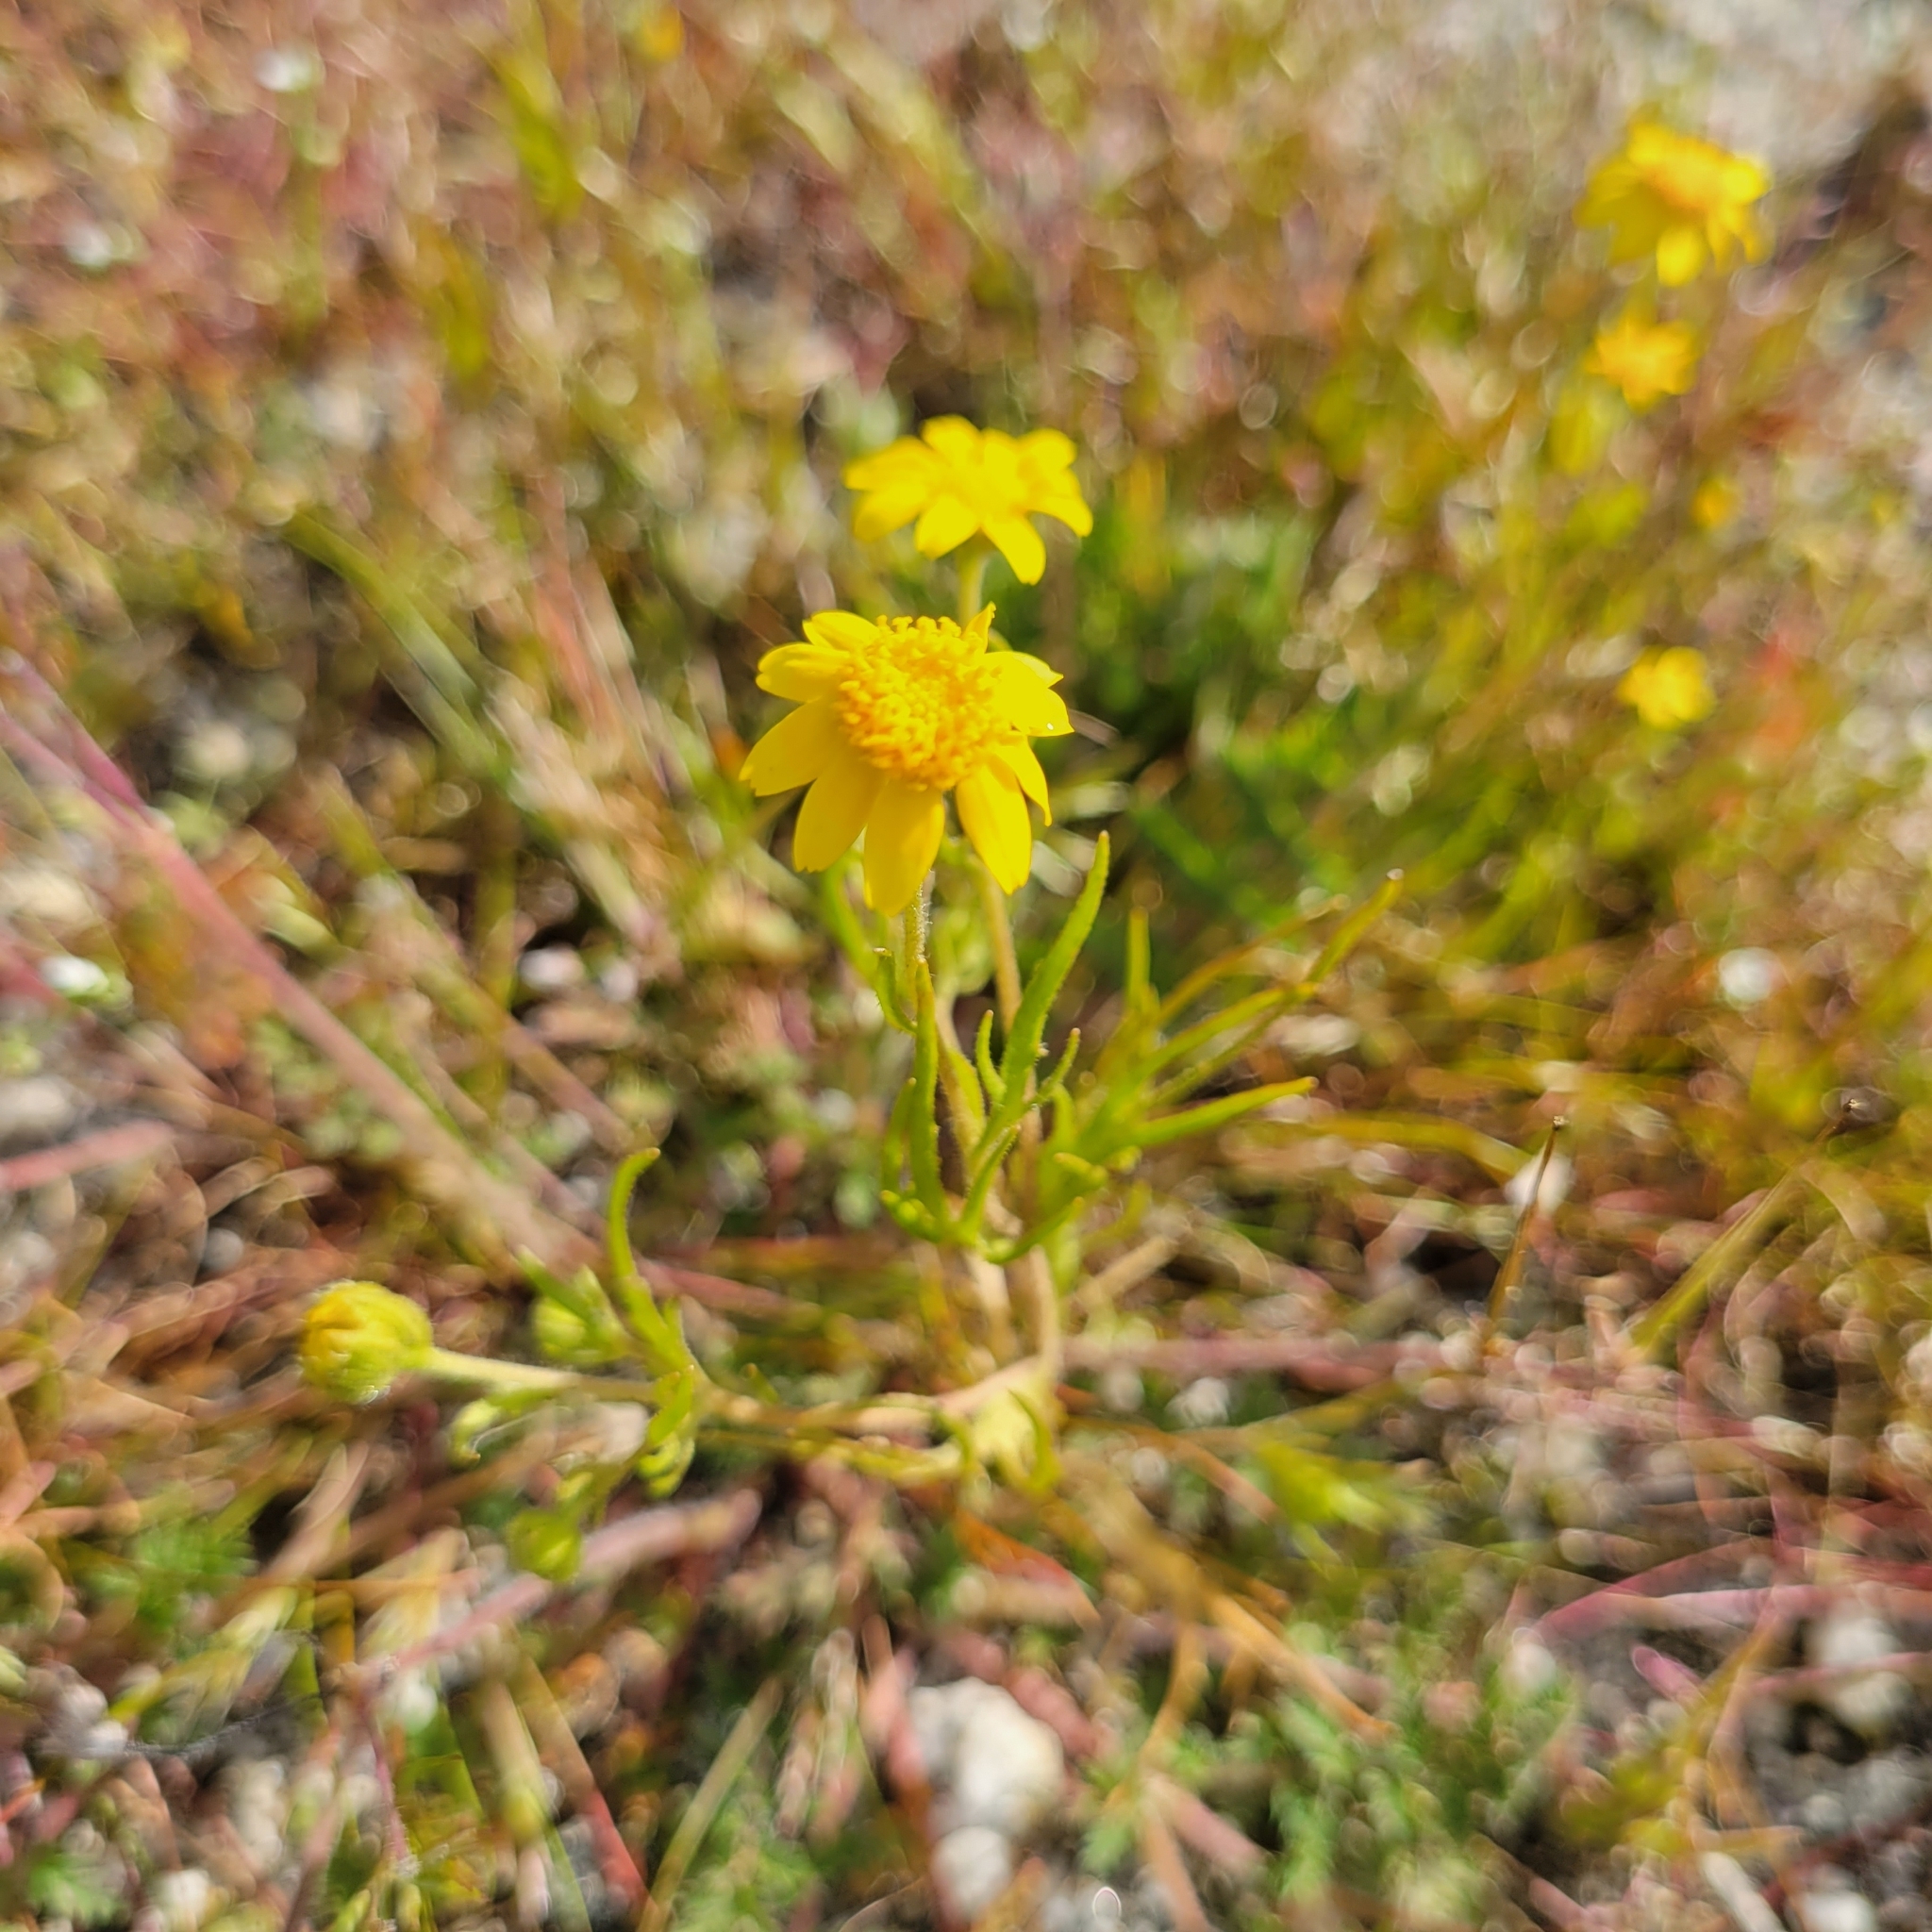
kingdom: Plantae
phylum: Tracheophyta
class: Magnoliopsida
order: Asterales
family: Asteraceae
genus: Lasthenia
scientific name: Lasthenia gracilis
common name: Common goldfields
